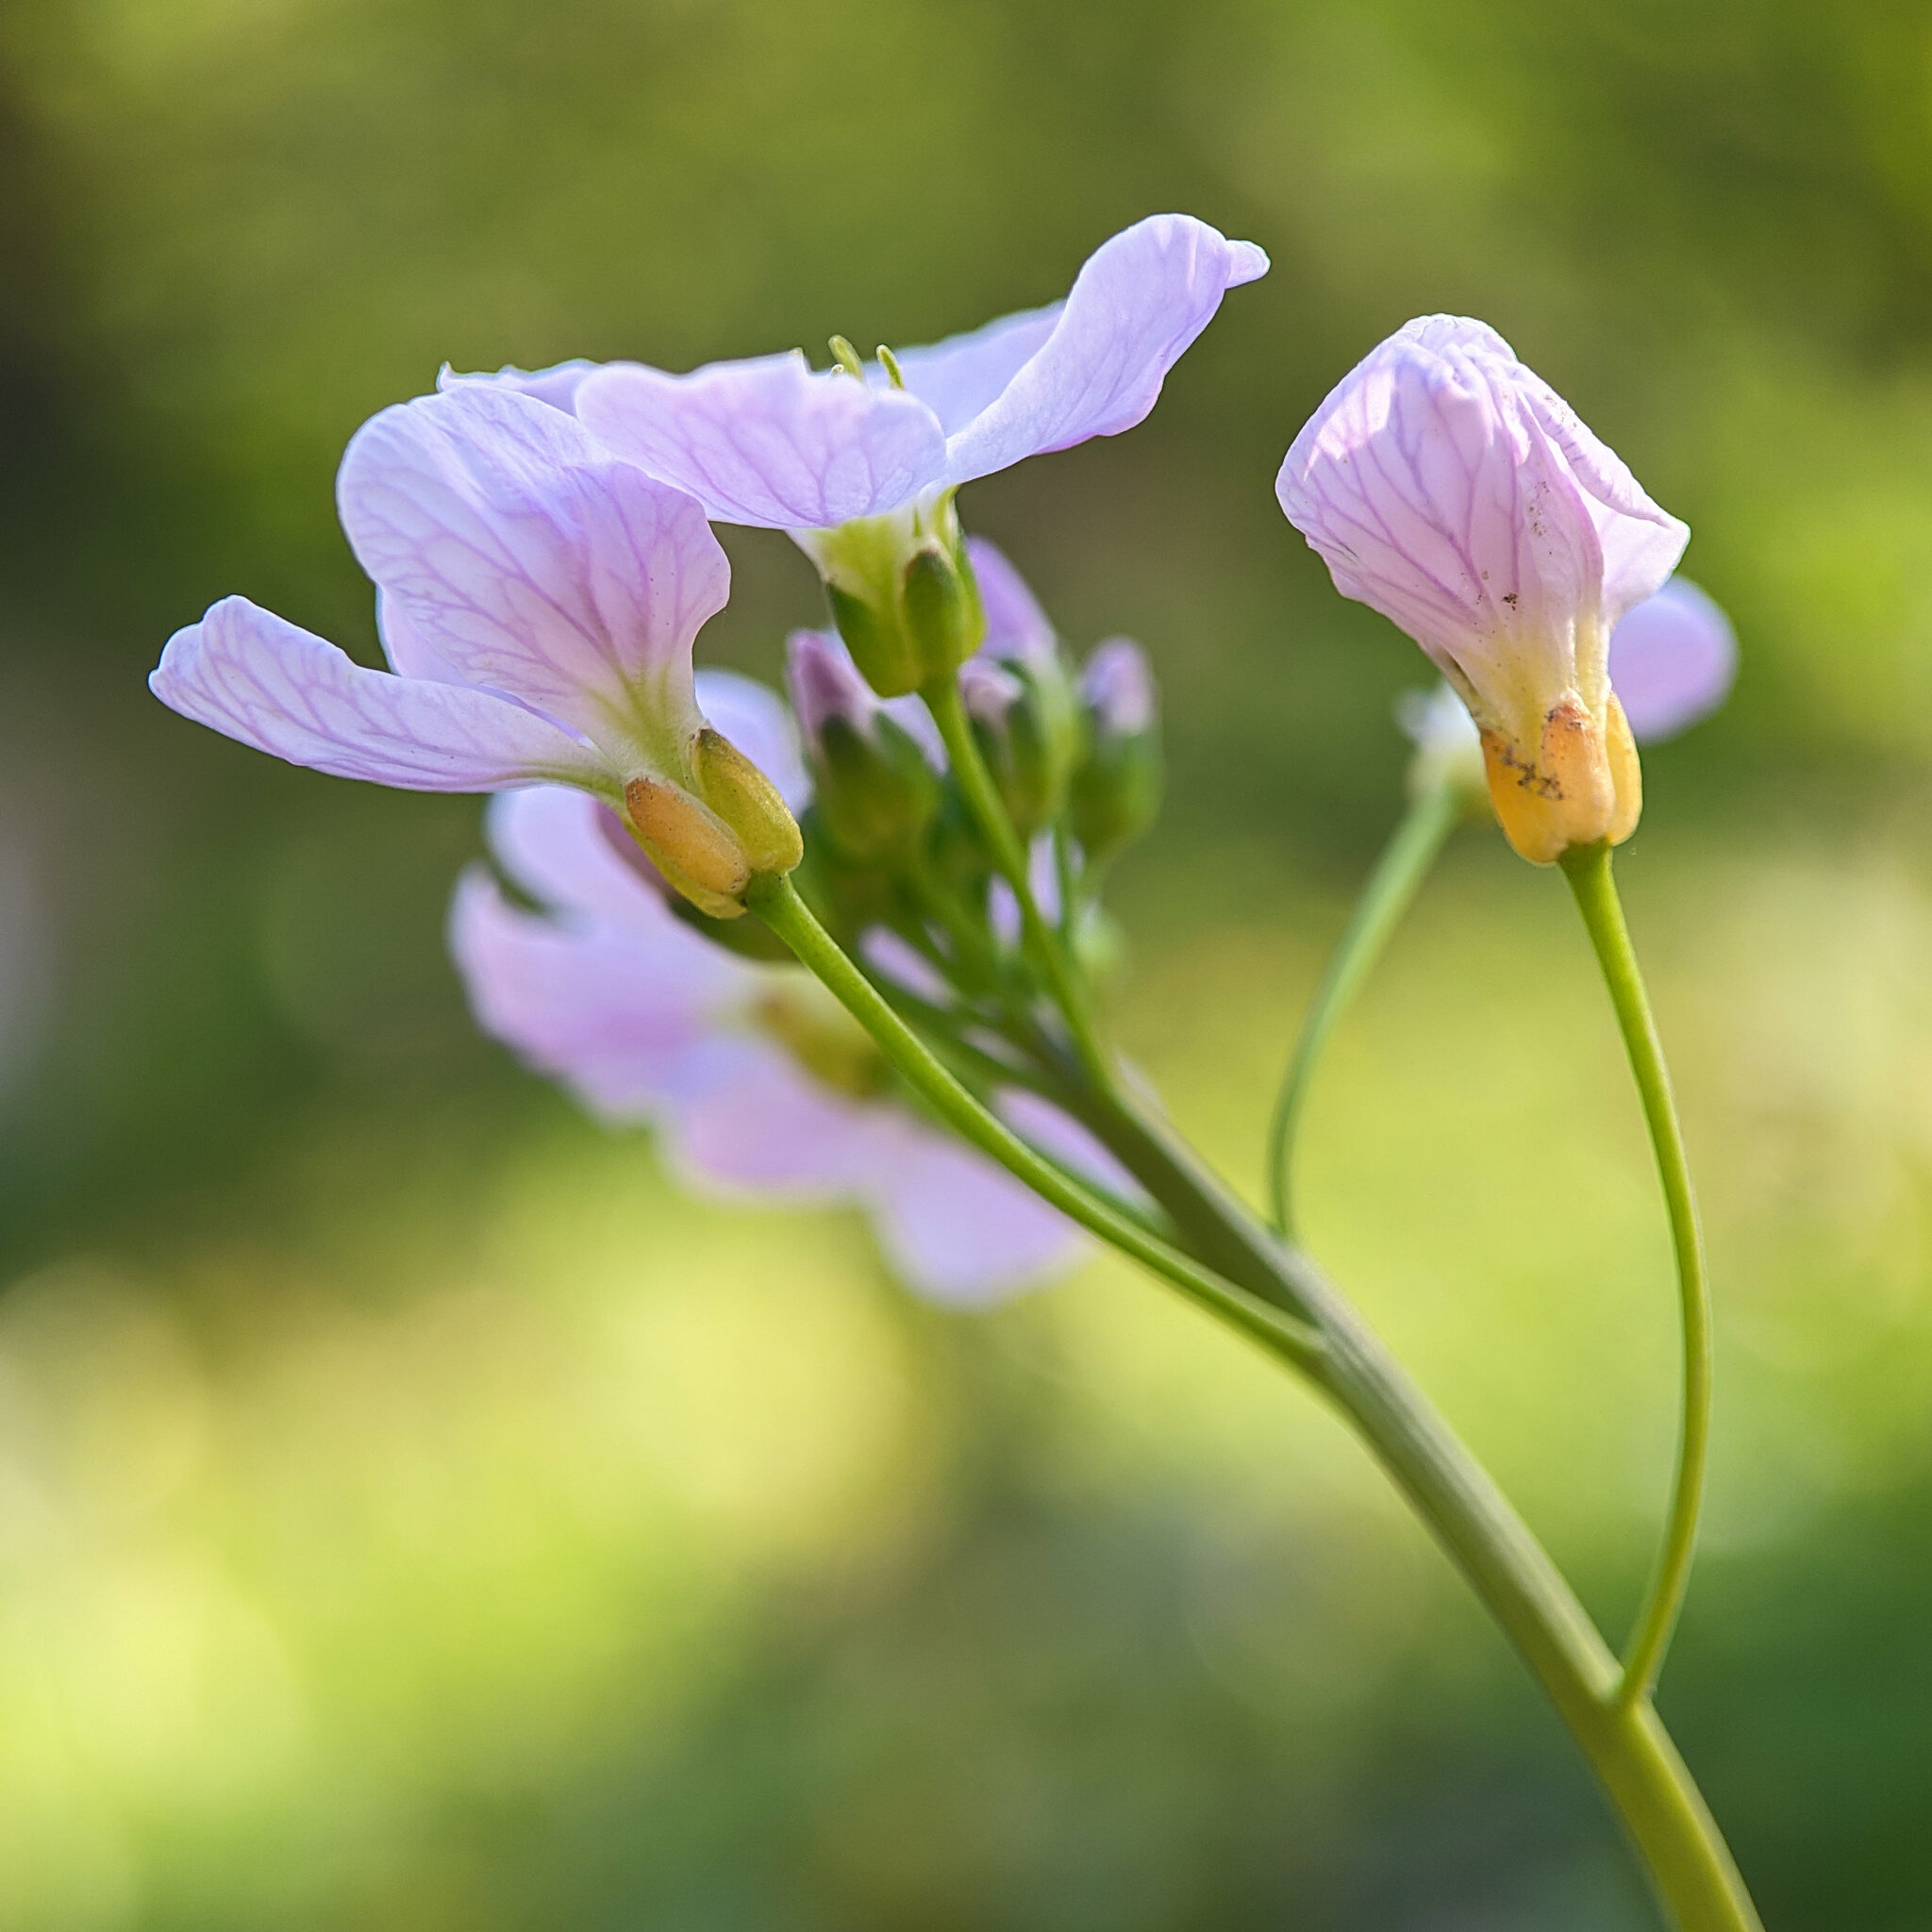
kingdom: Plantae
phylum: Tracheophyta
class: Magnoliopsida
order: Brassicales
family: Brassicaceae
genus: Cardamine
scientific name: Cardamine pratensis
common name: Cuckoo flower
